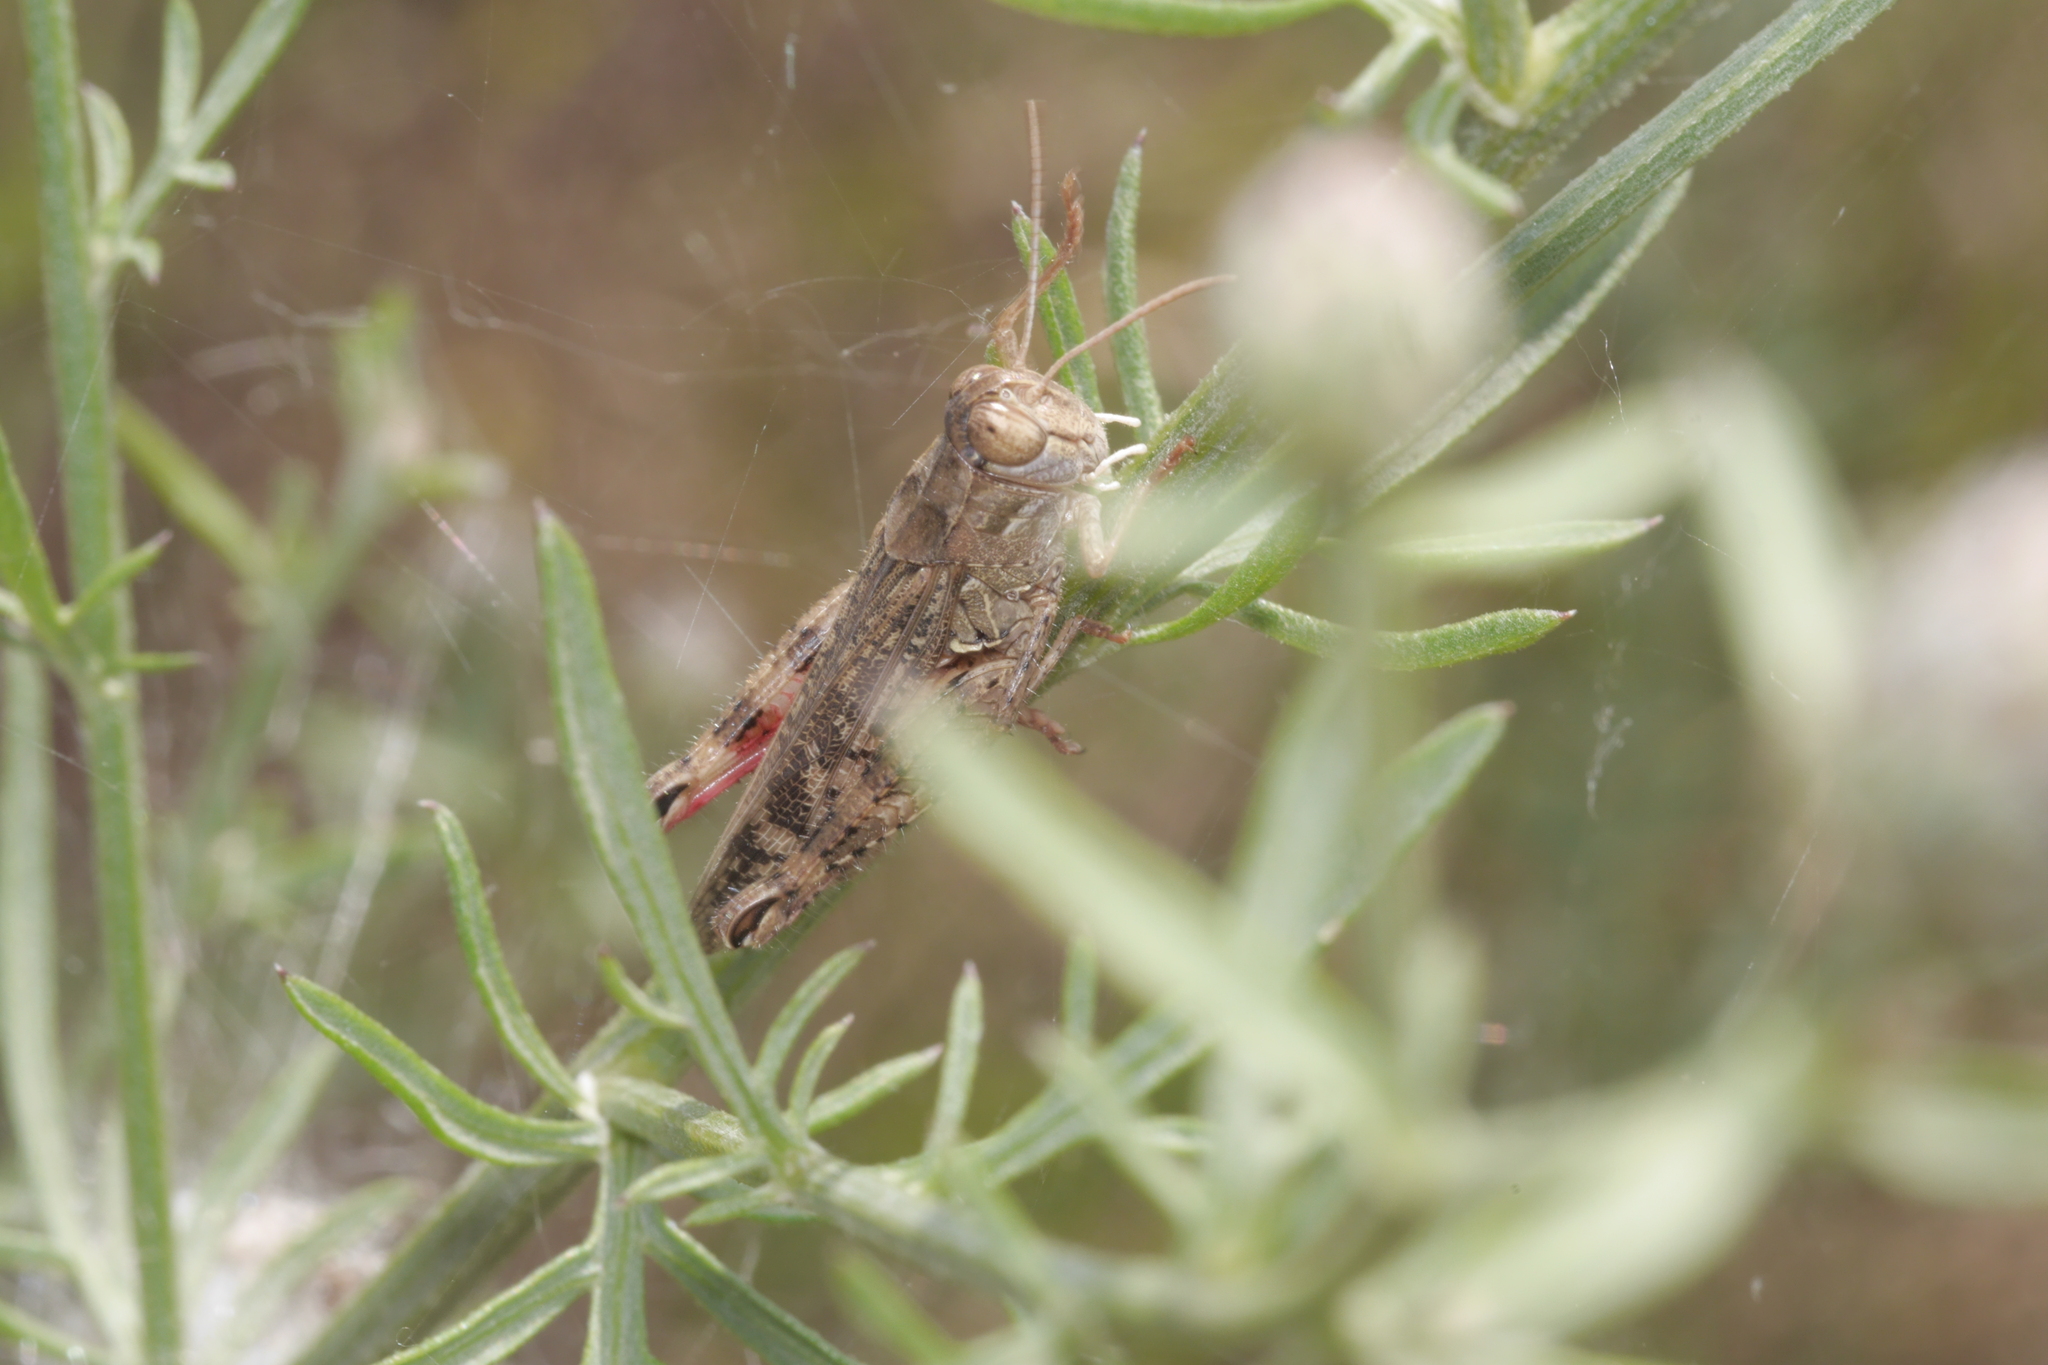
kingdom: Animalia
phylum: Arthropoda
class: Insecta
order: Orthoptera
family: Acrididae
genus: Calliptamus
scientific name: Calliptamus italicus
